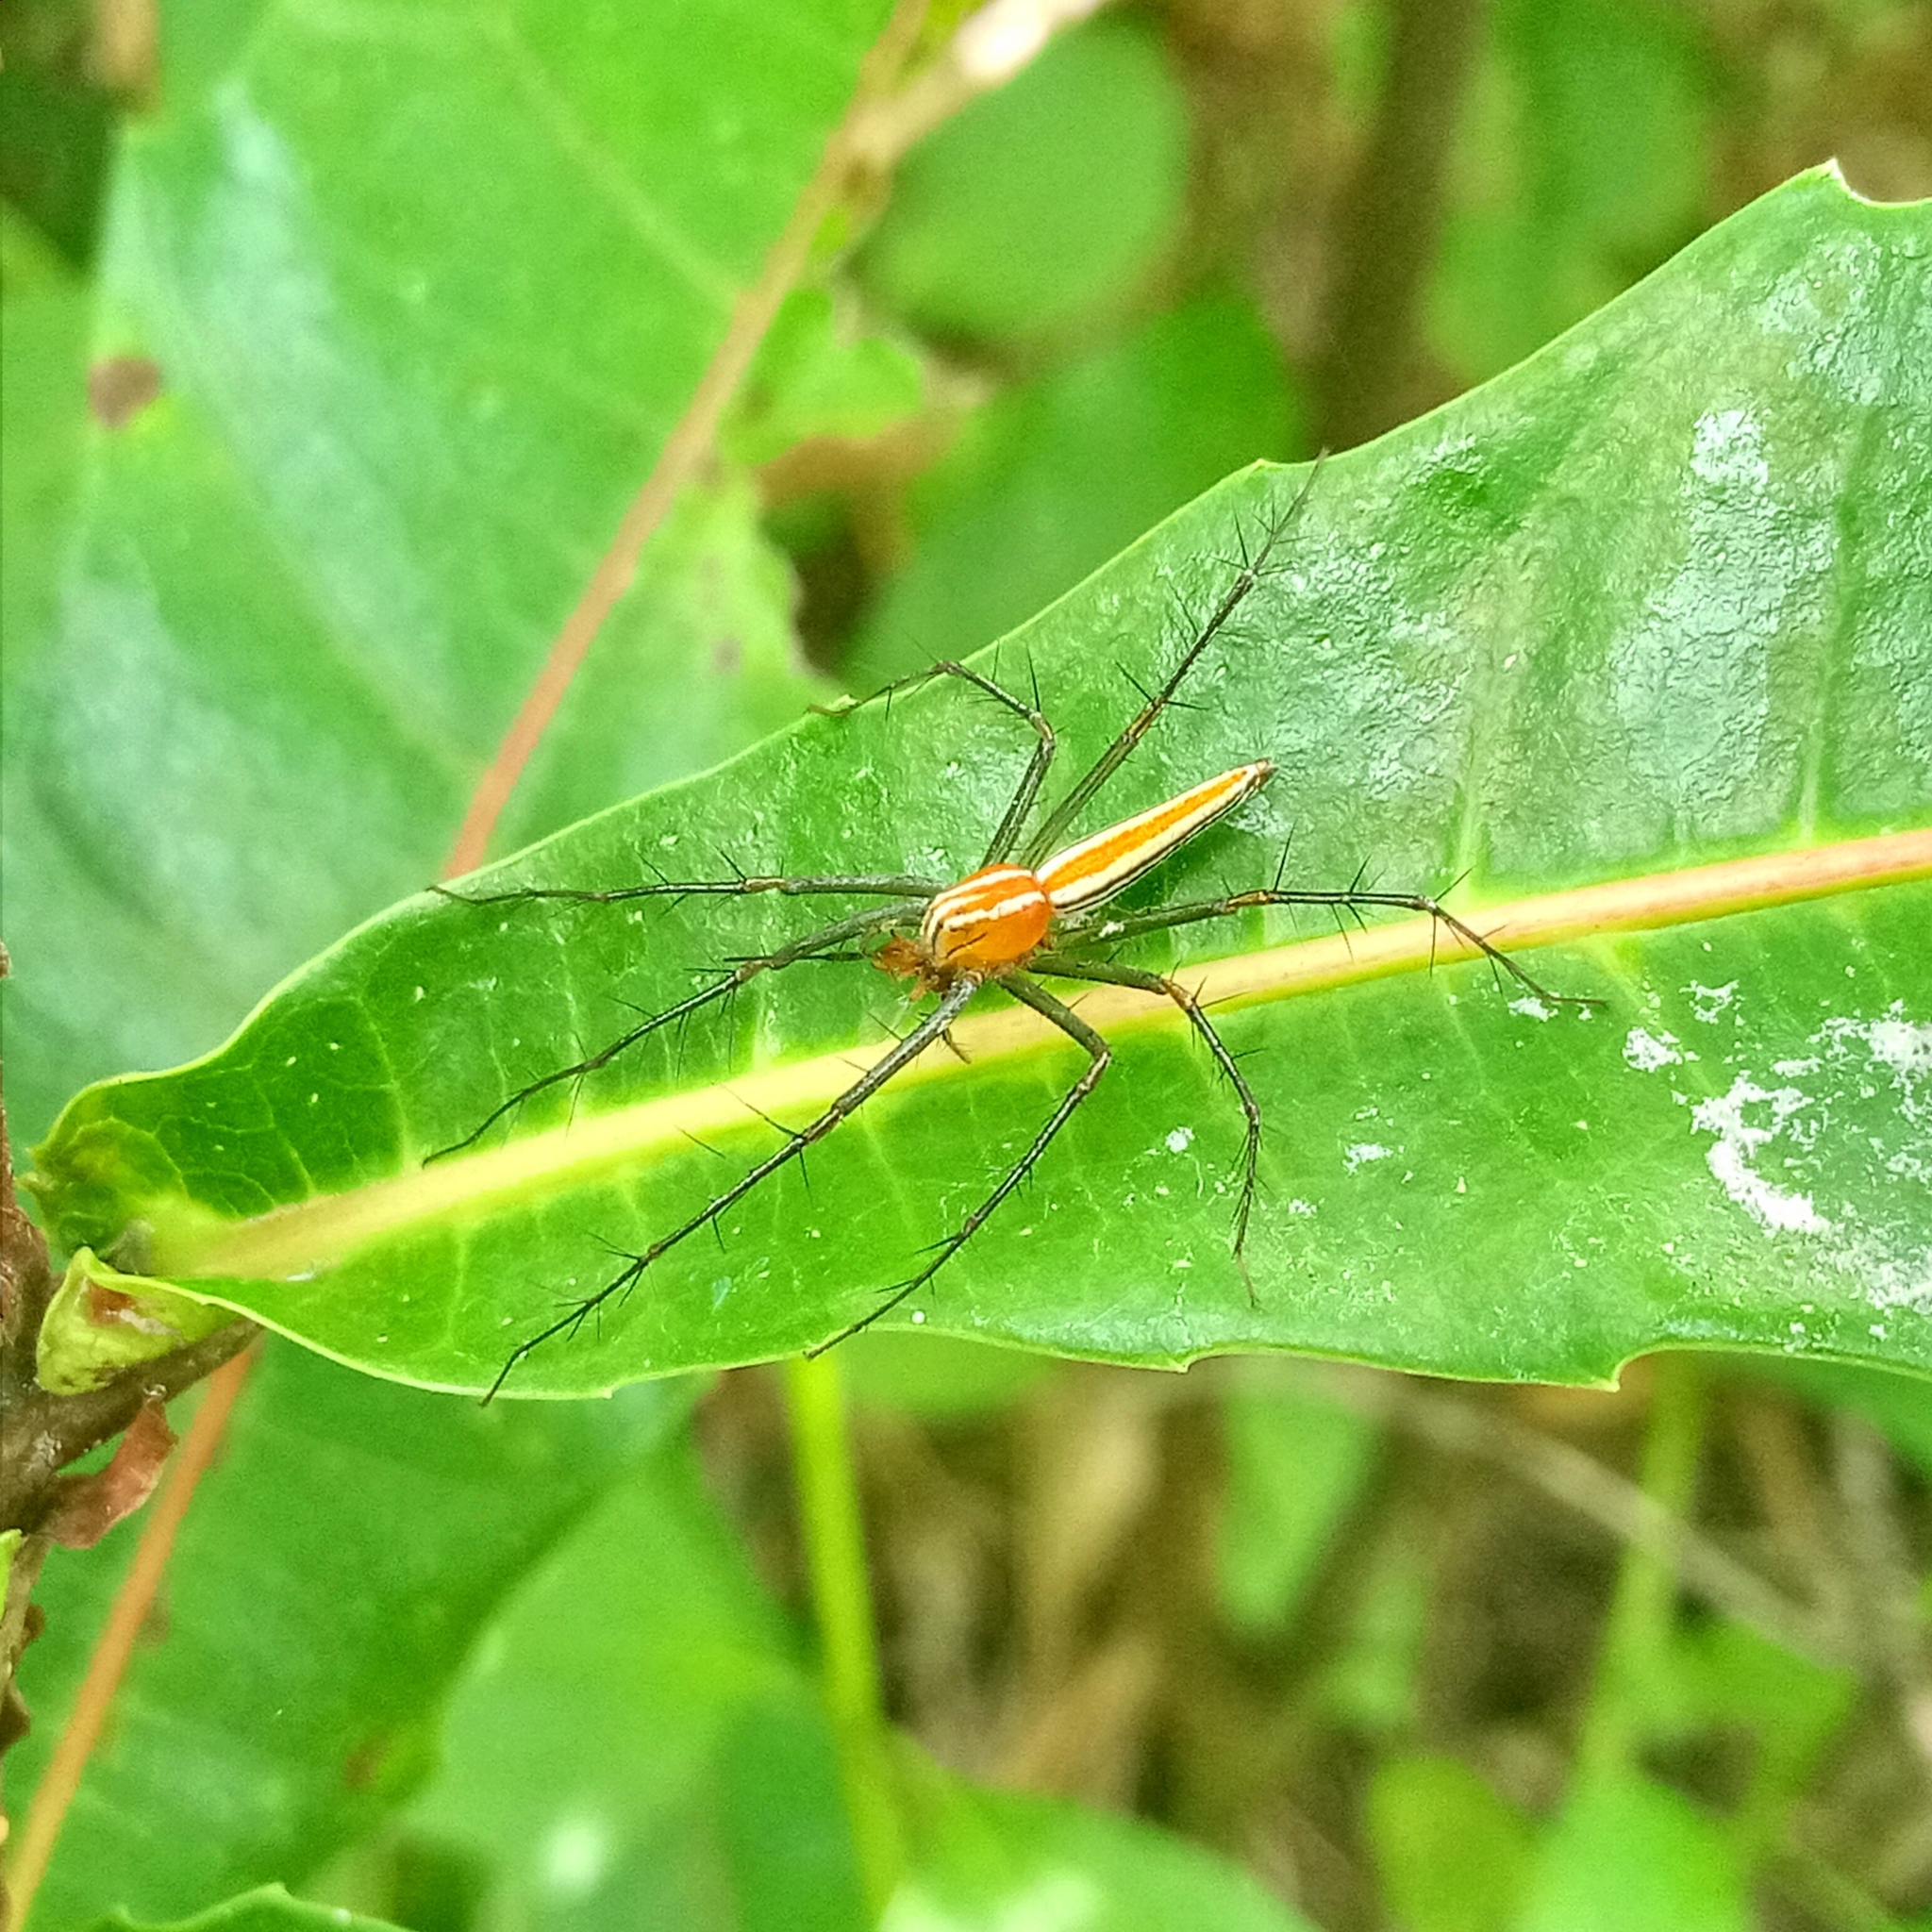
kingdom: Animalia
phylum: Arthropoda
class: Arachnida
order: Araneae
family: Oxyopidae
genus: Oxyopes
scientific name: Oxyopes macilentus
